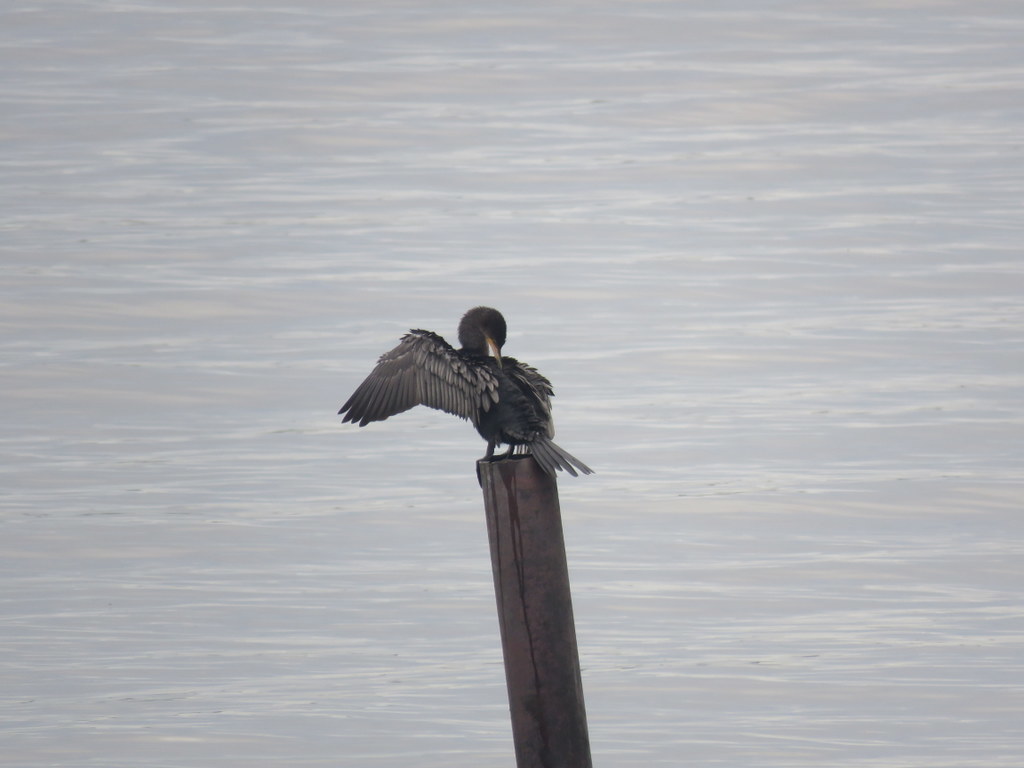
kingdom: Animalia
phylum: Chordata
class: Aves
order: Suliformes
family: Phalacrocoracidae
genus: Phalacrocorax
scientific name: Phalacrocorax brasilianus
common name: Neotropic cormorant
